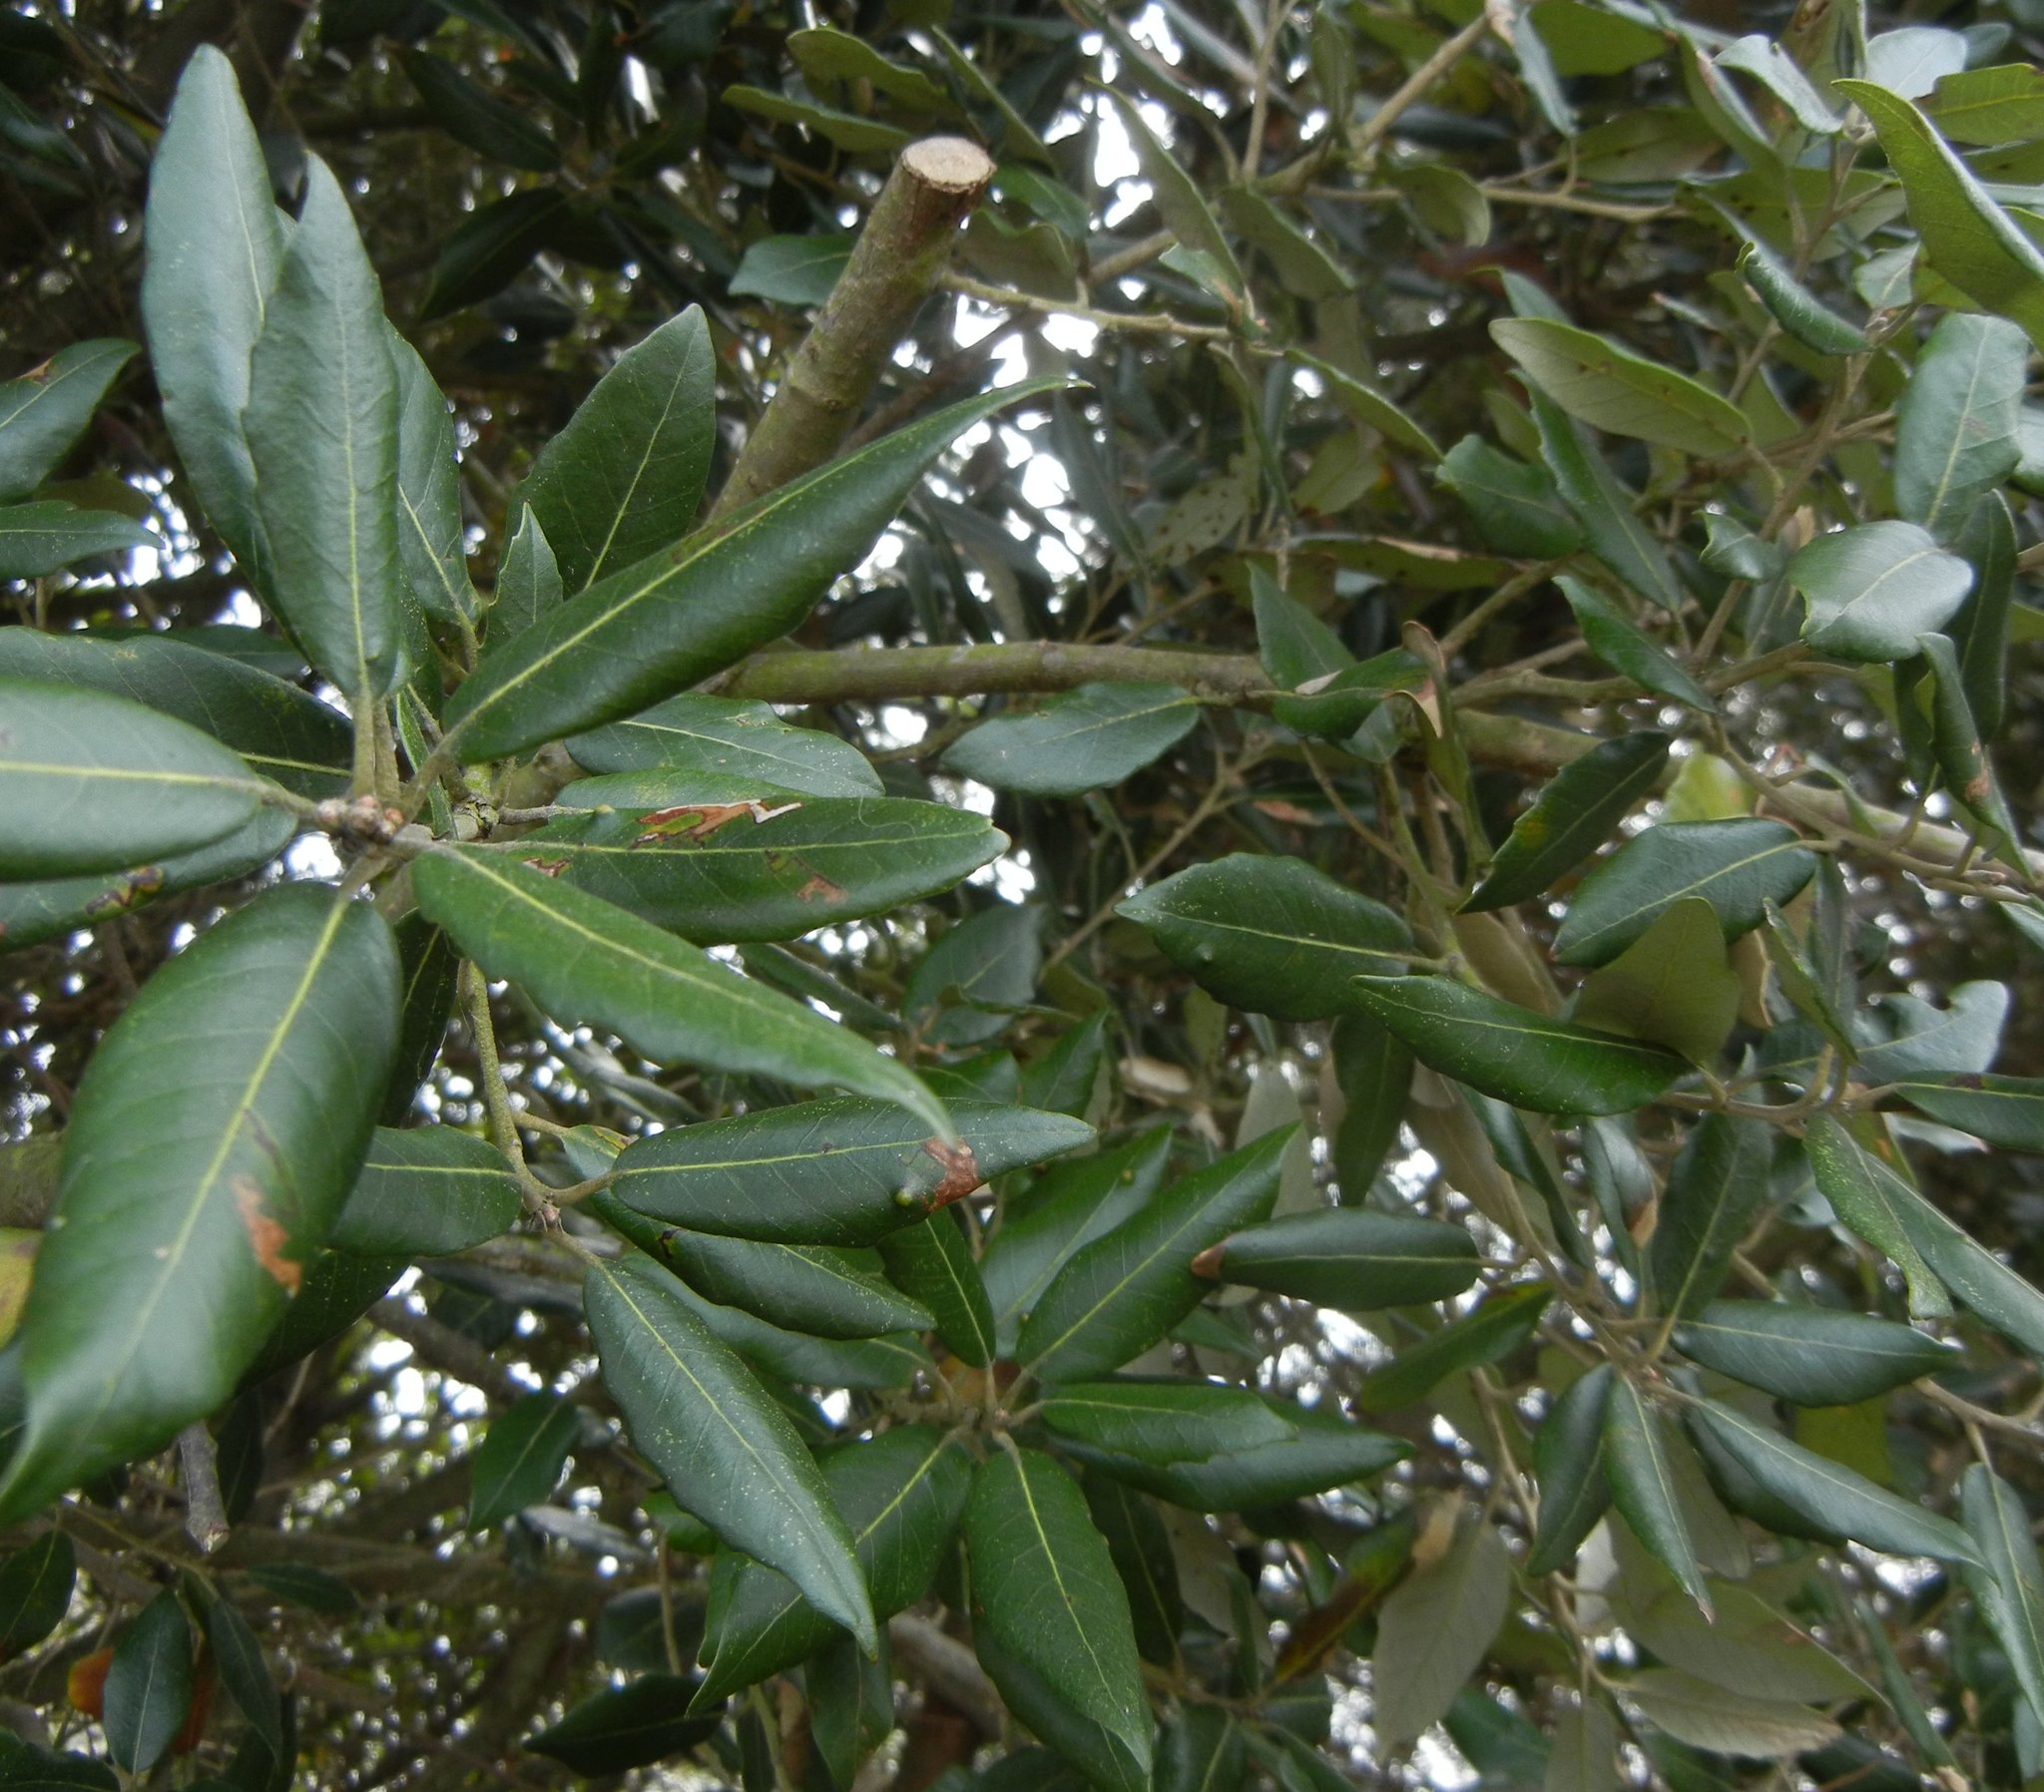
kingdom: Plantae
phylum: Tracheophyta
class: Magnoliopsida
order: Fagales
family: Fagaceae
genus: Quercus
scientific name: Quercus ilex
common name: Evergreen oak
